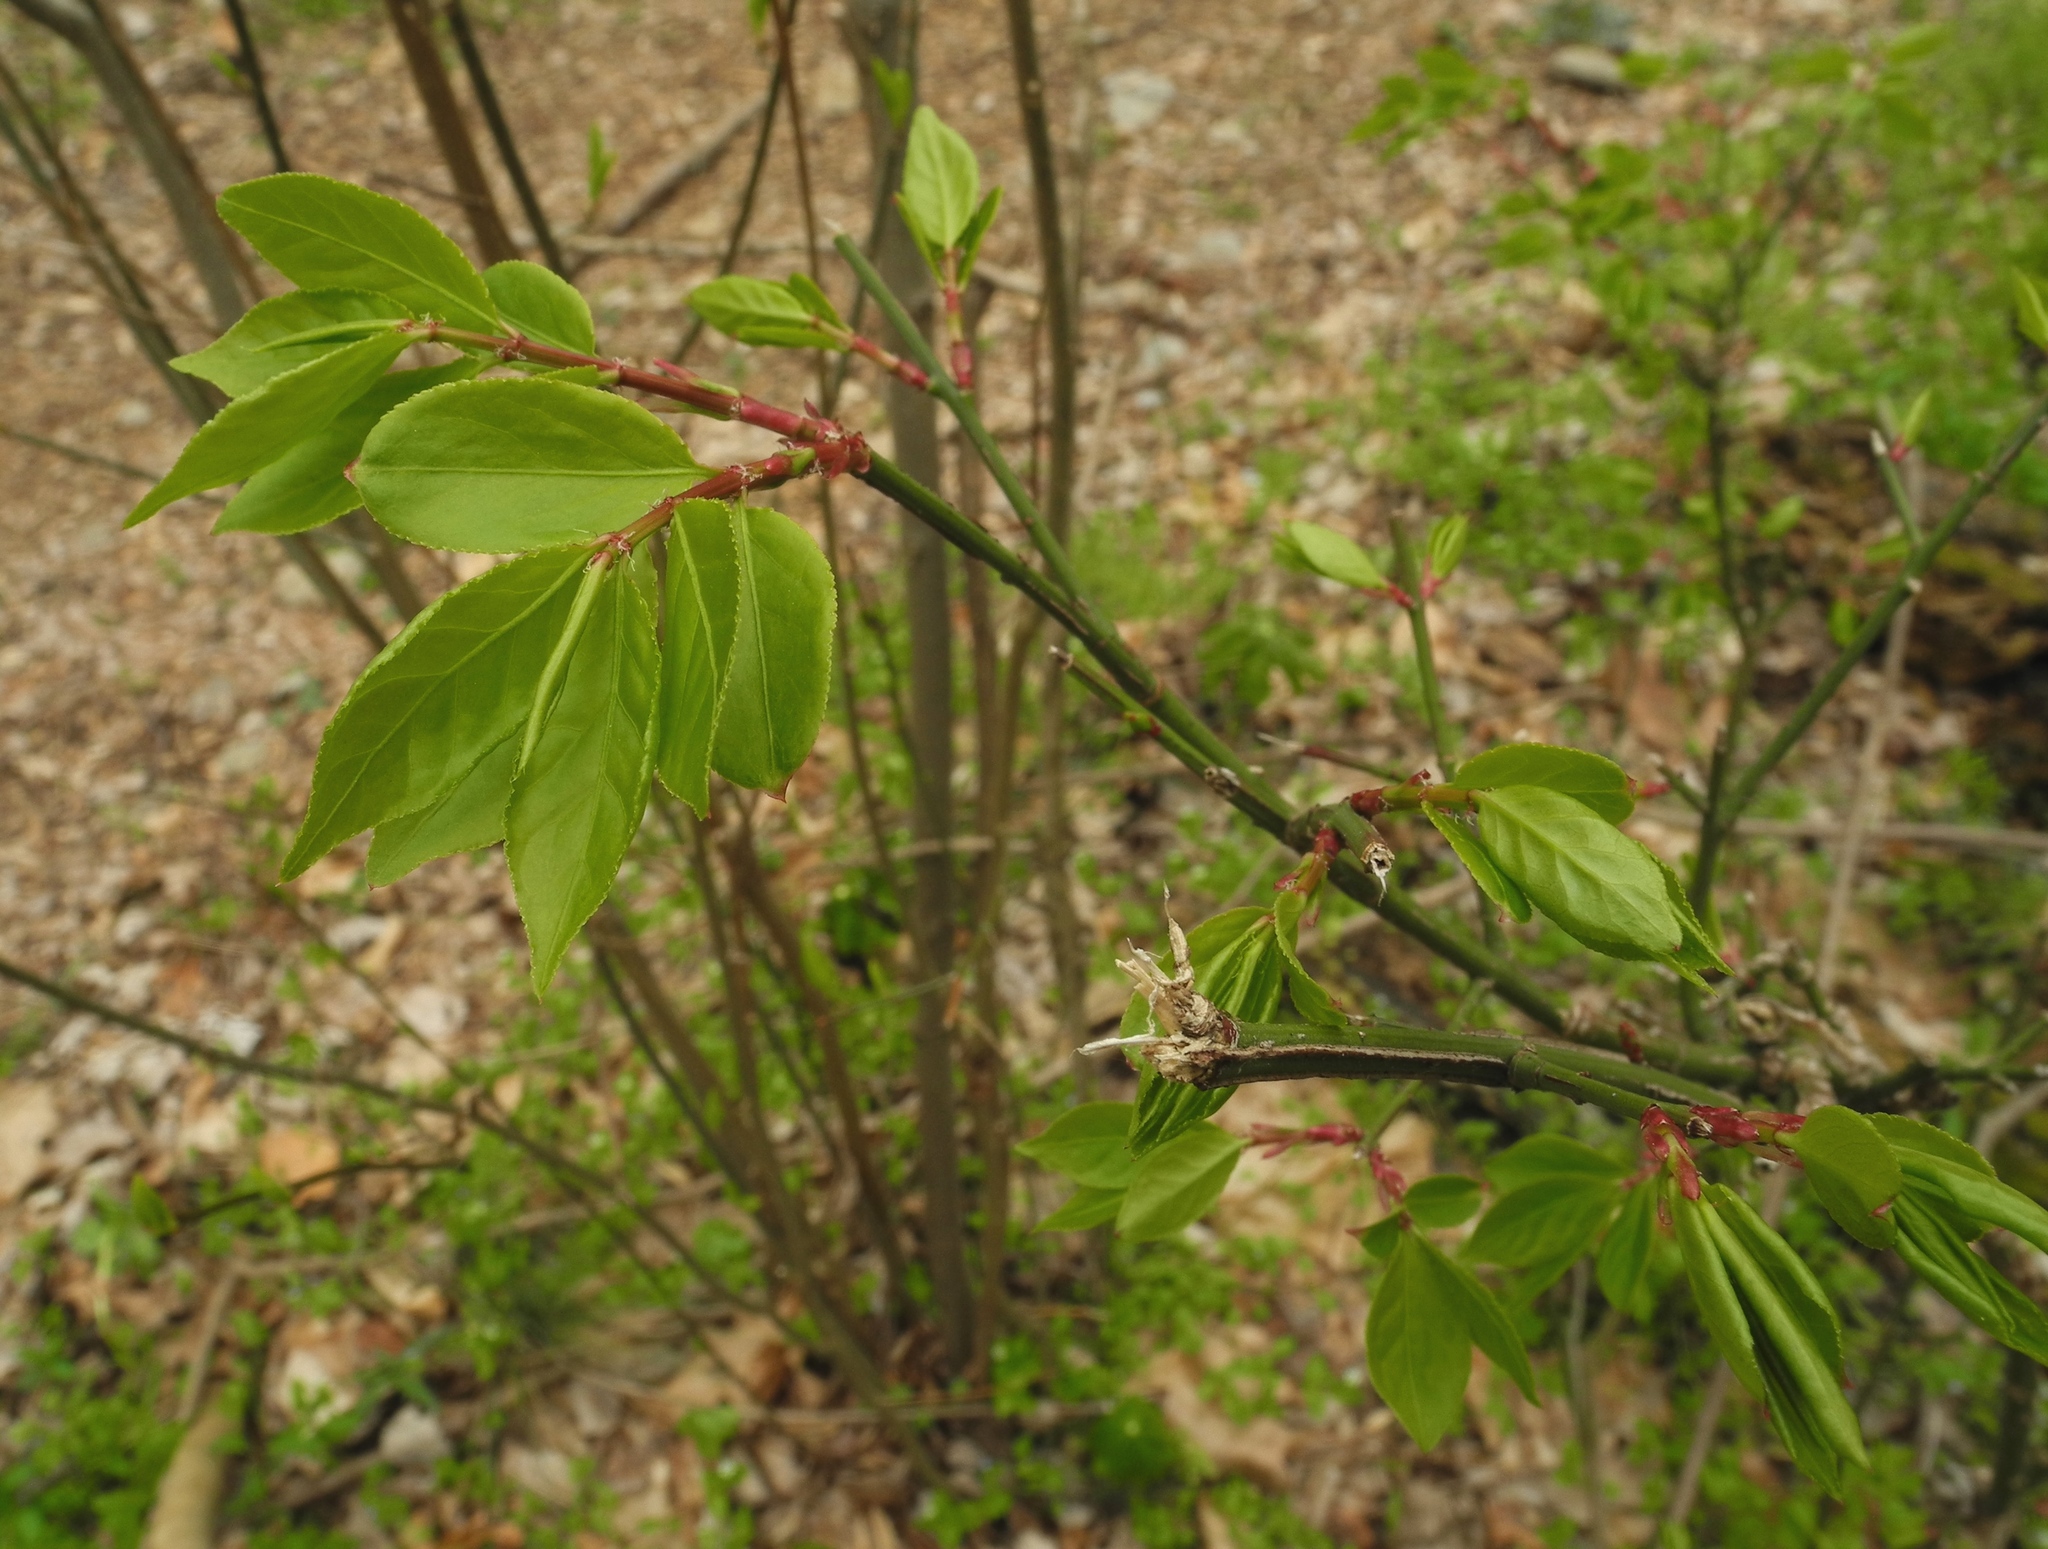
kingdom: Plantae
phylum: Tracheophyta
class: Magnoliopsida
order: Celastrales
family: Celastraceae
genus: Euonymus
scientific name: Euonymus alatus
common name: Winged euonymus
